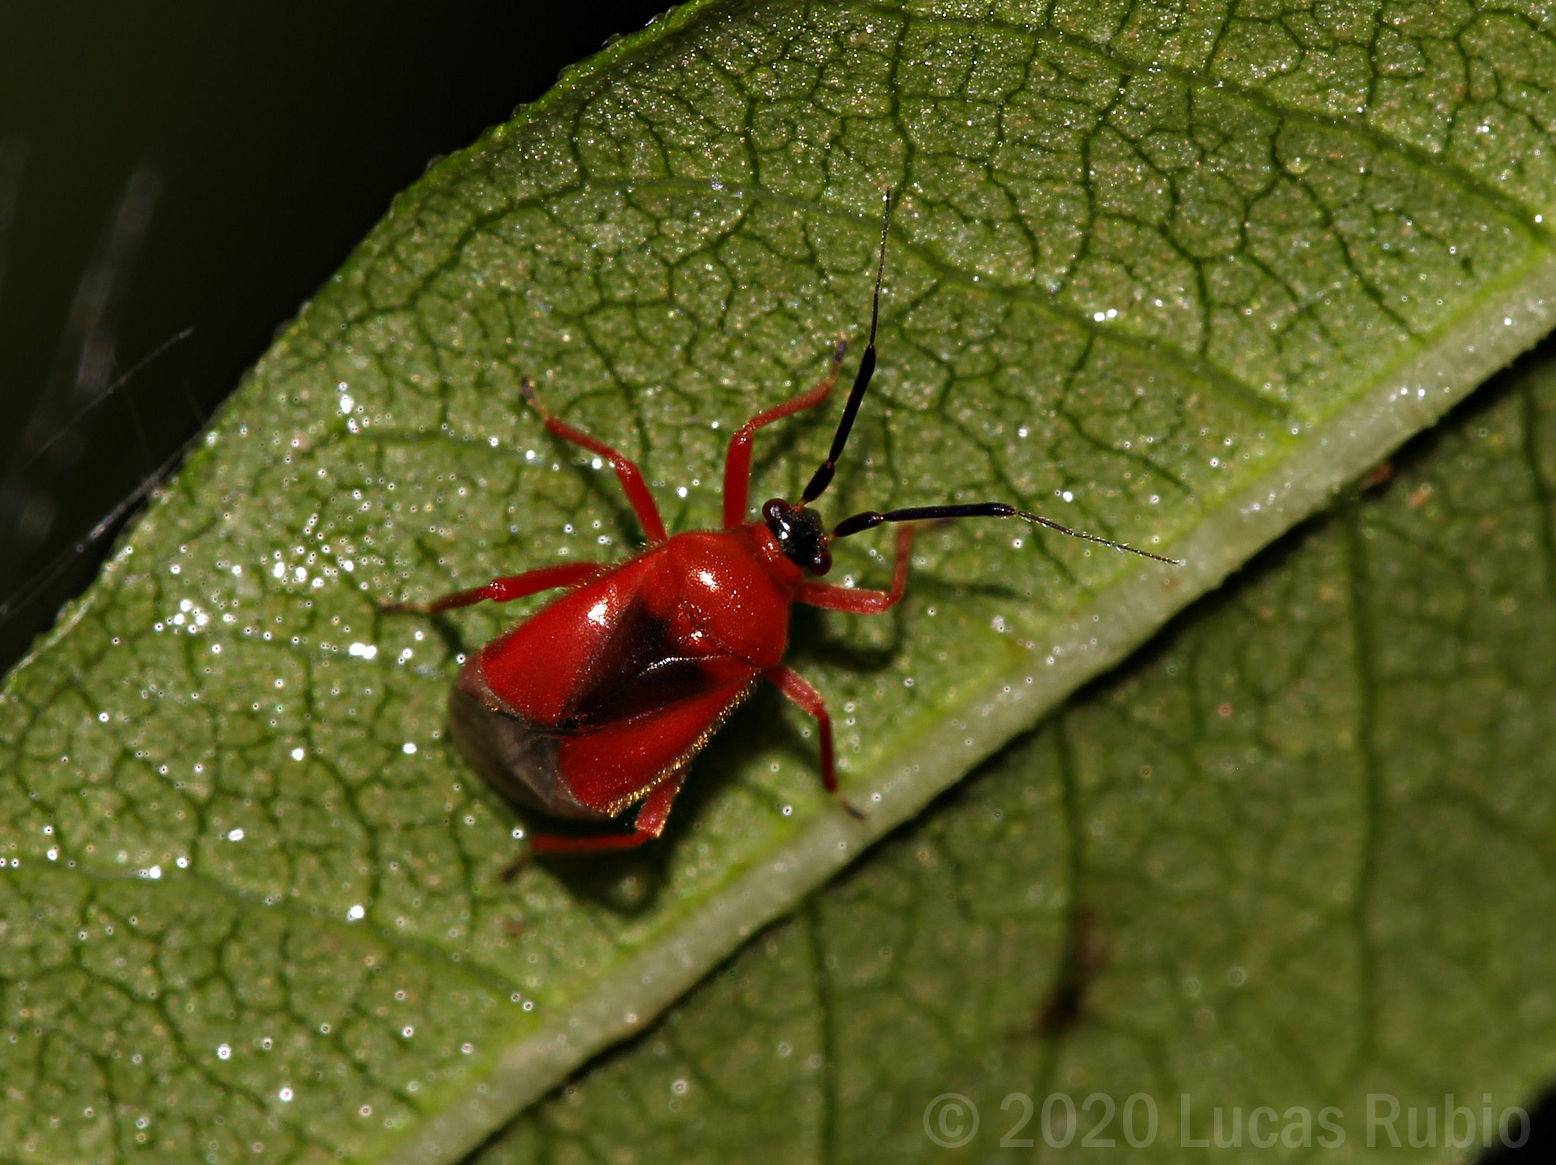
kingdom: Animalia
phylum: Arthropoda
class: Insecta
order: Hemiptera
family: Miridae
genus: Pachymerocerus
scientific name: Pachymerocerus erythronotus
